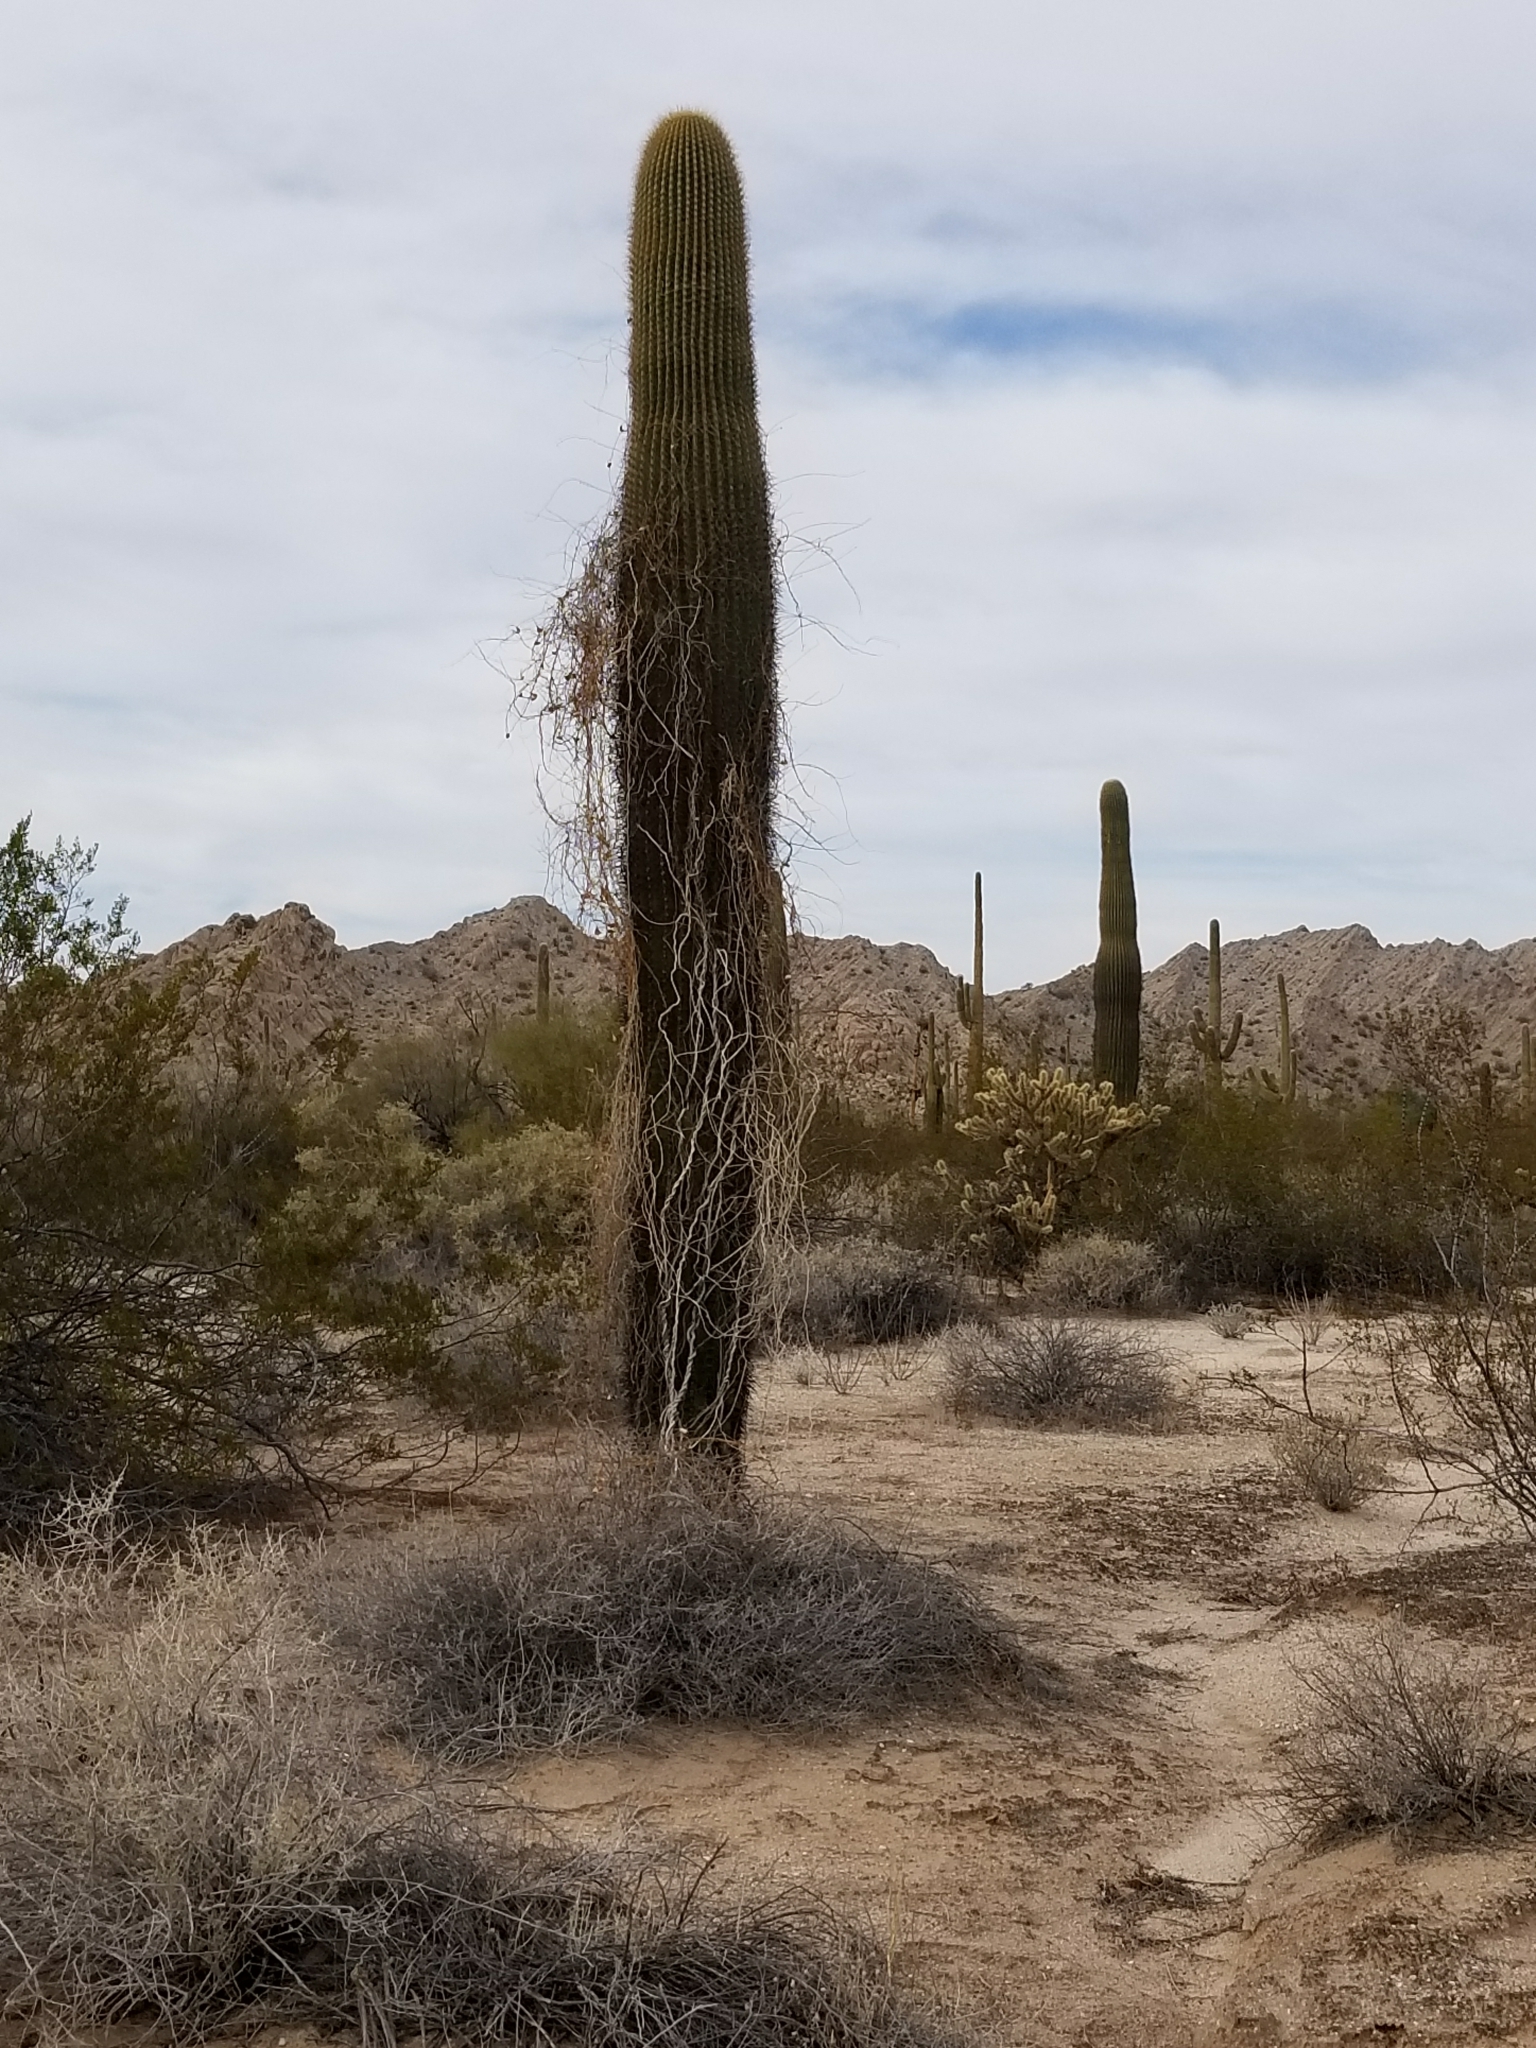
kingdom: Plantae
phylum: Tracheophyta
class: Magnoliopsida
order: Caryophyllales
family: Cactaceae
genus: Carnegiea
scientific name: Carnegiea gigantea
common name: Saguaro
